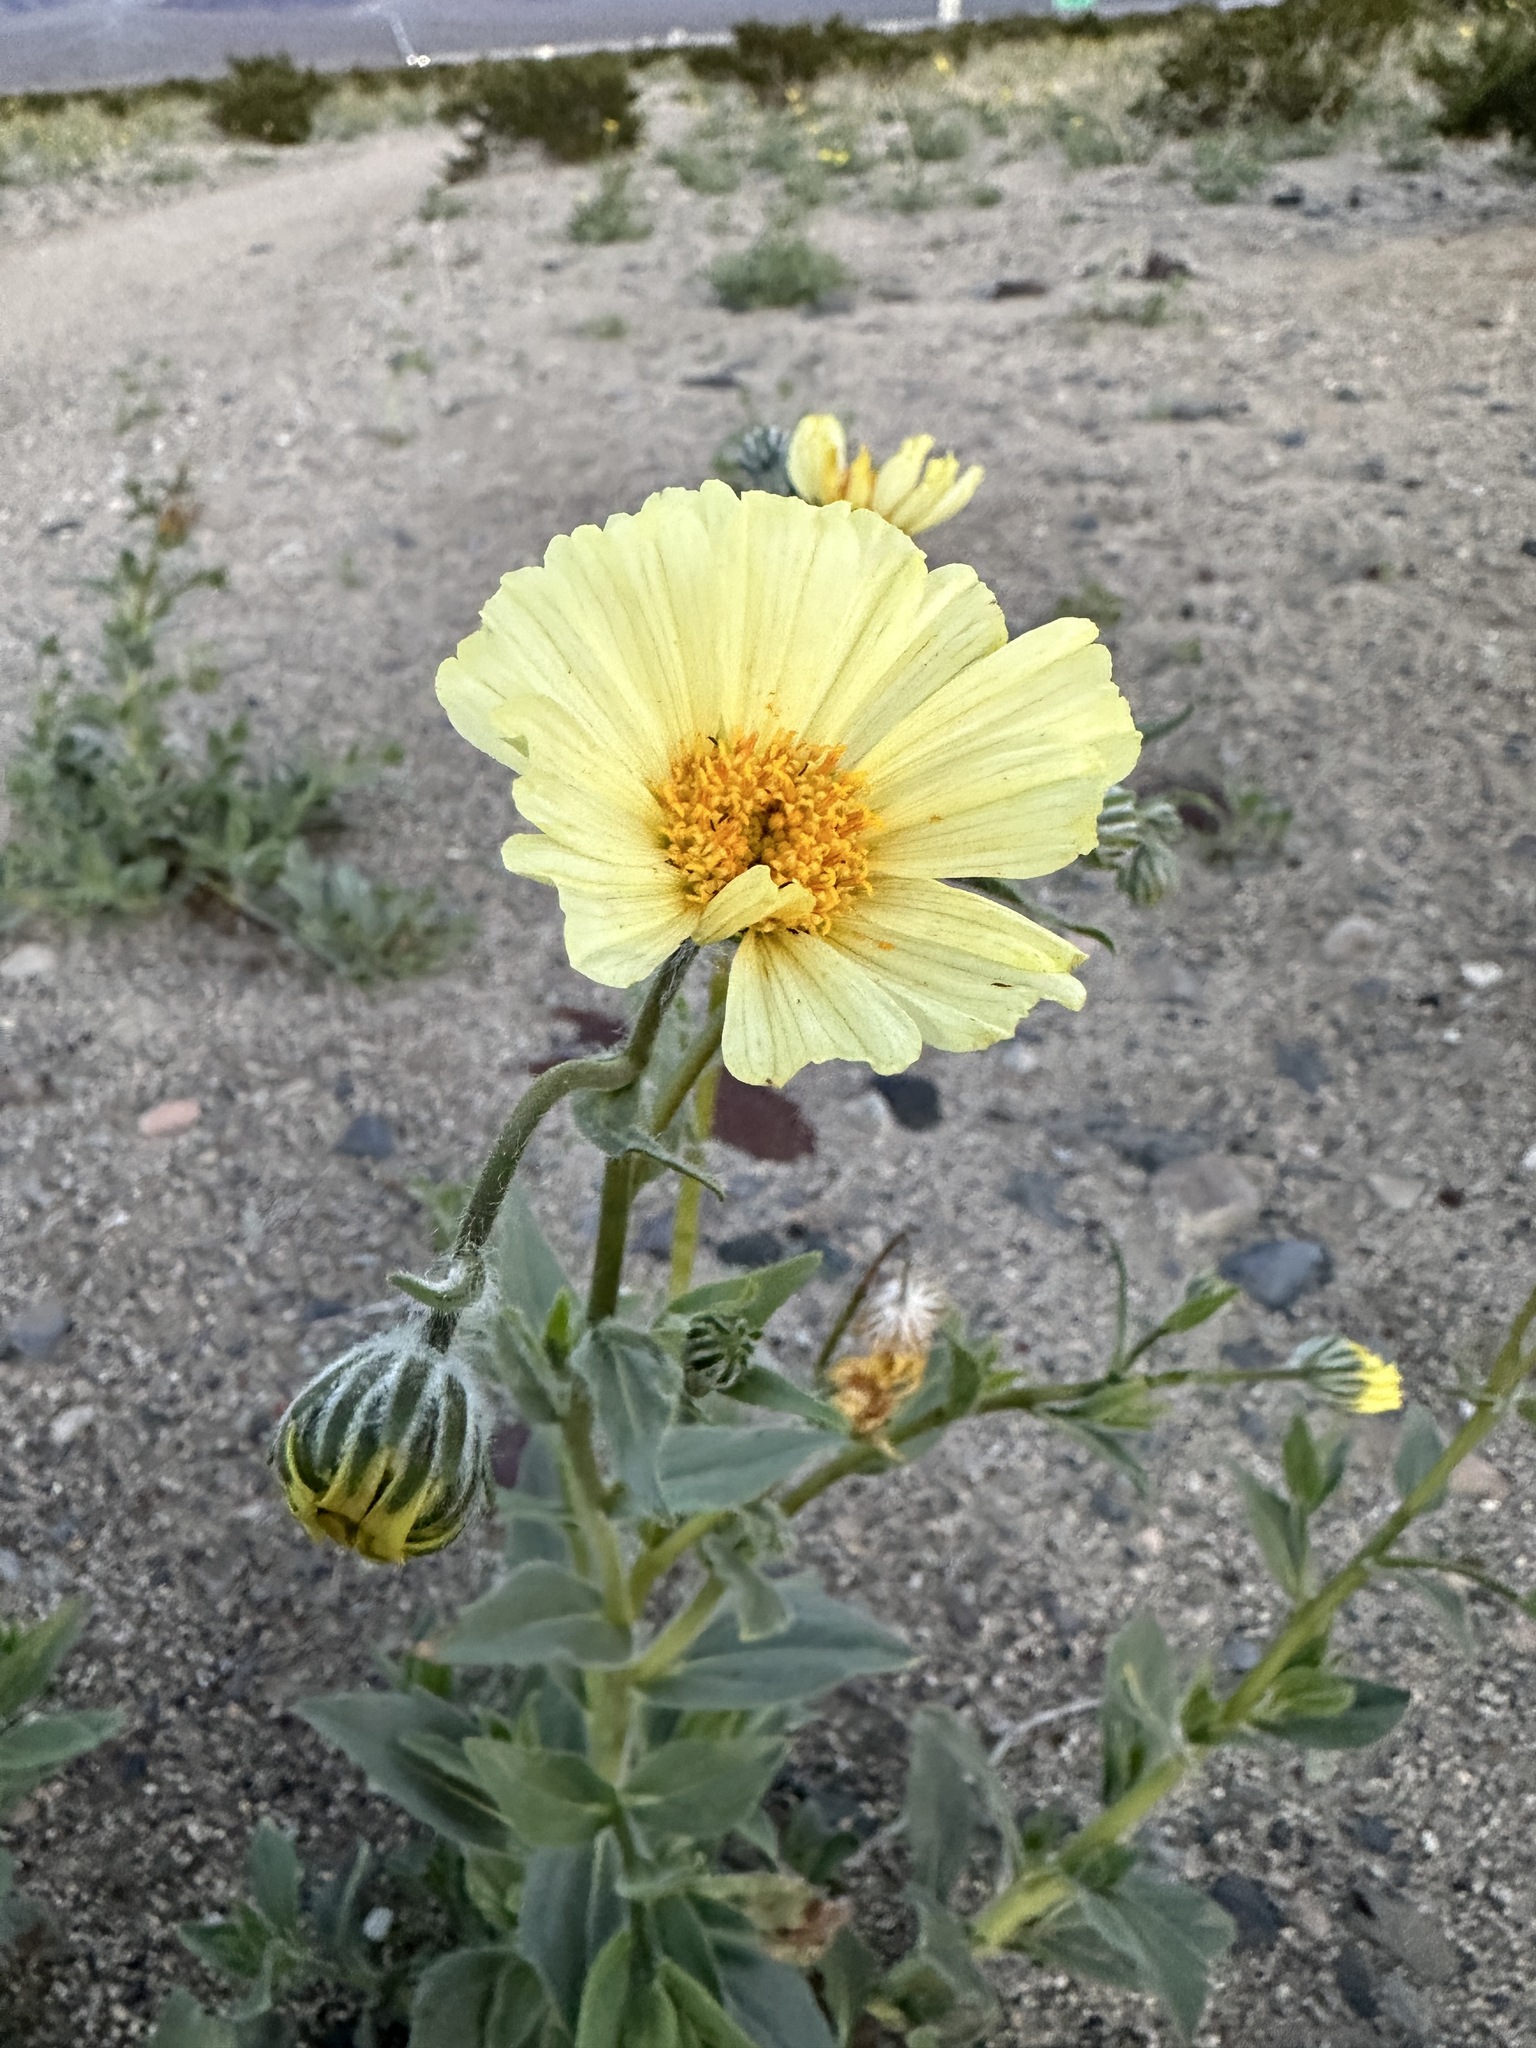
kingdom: Plantae
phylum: Tracheophyta
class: Magnoliopsida
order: Asterales
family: Asteraceae
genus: Geraea
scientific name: Geraea canescens
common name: Desert-gold
